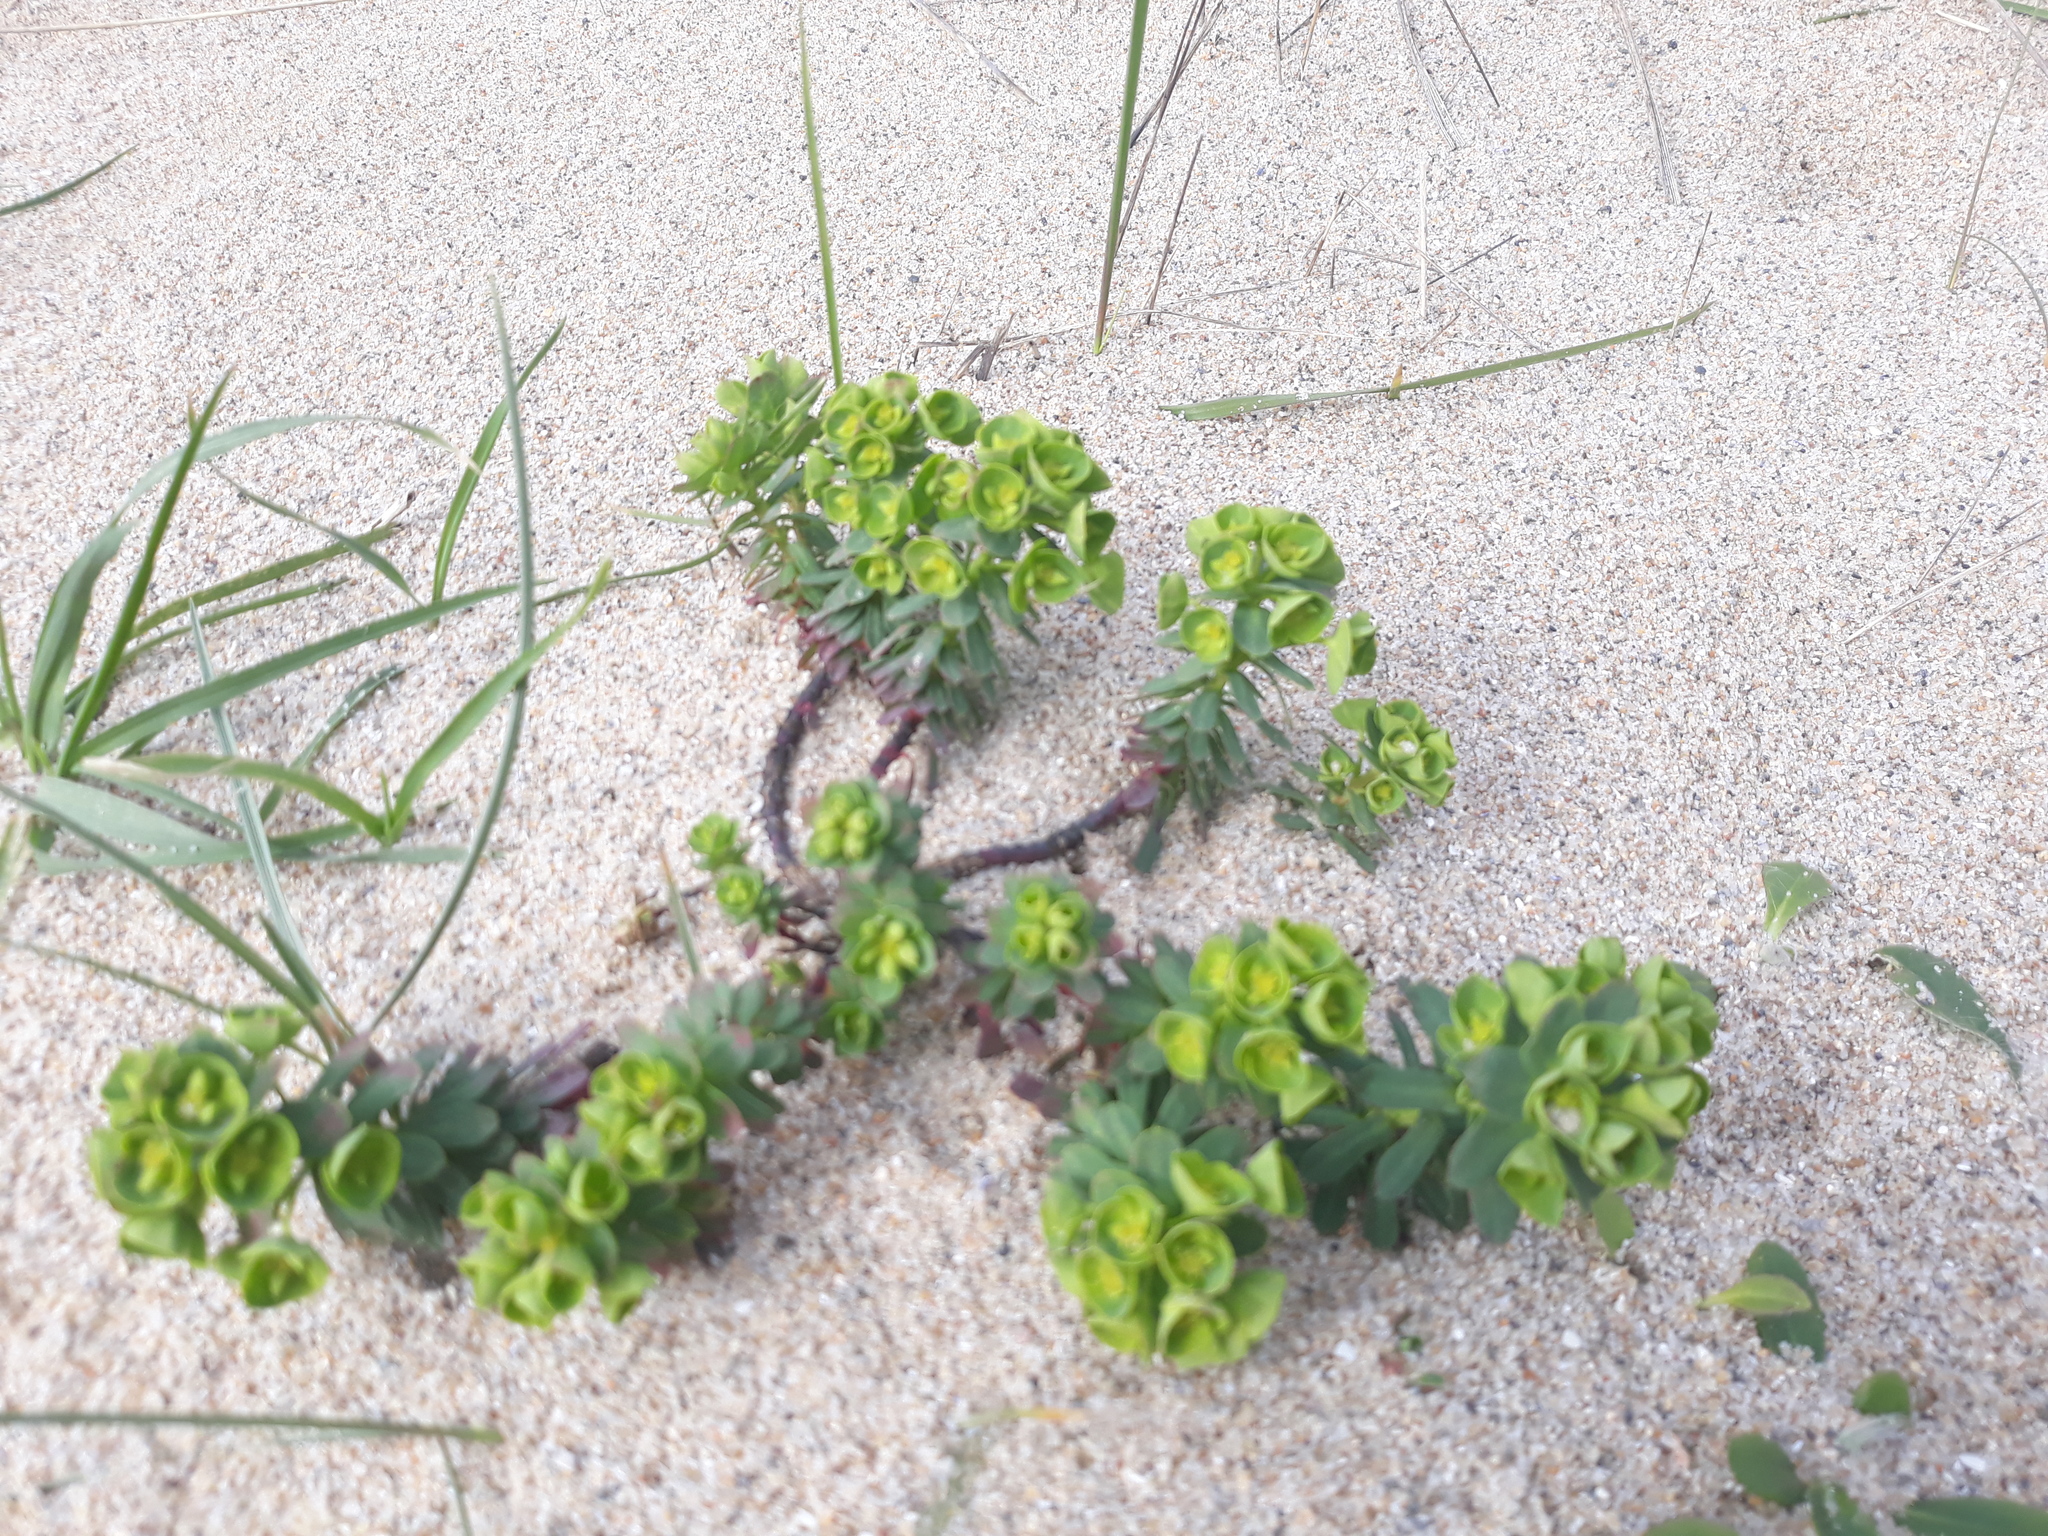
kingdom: Plantae
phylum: Tracheophyta
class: Magnoliopsida
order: Malpighiales
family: Euphorbiaceae
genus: Euphorbia
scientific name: Euphorbia portlandica
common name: Portland spurge
